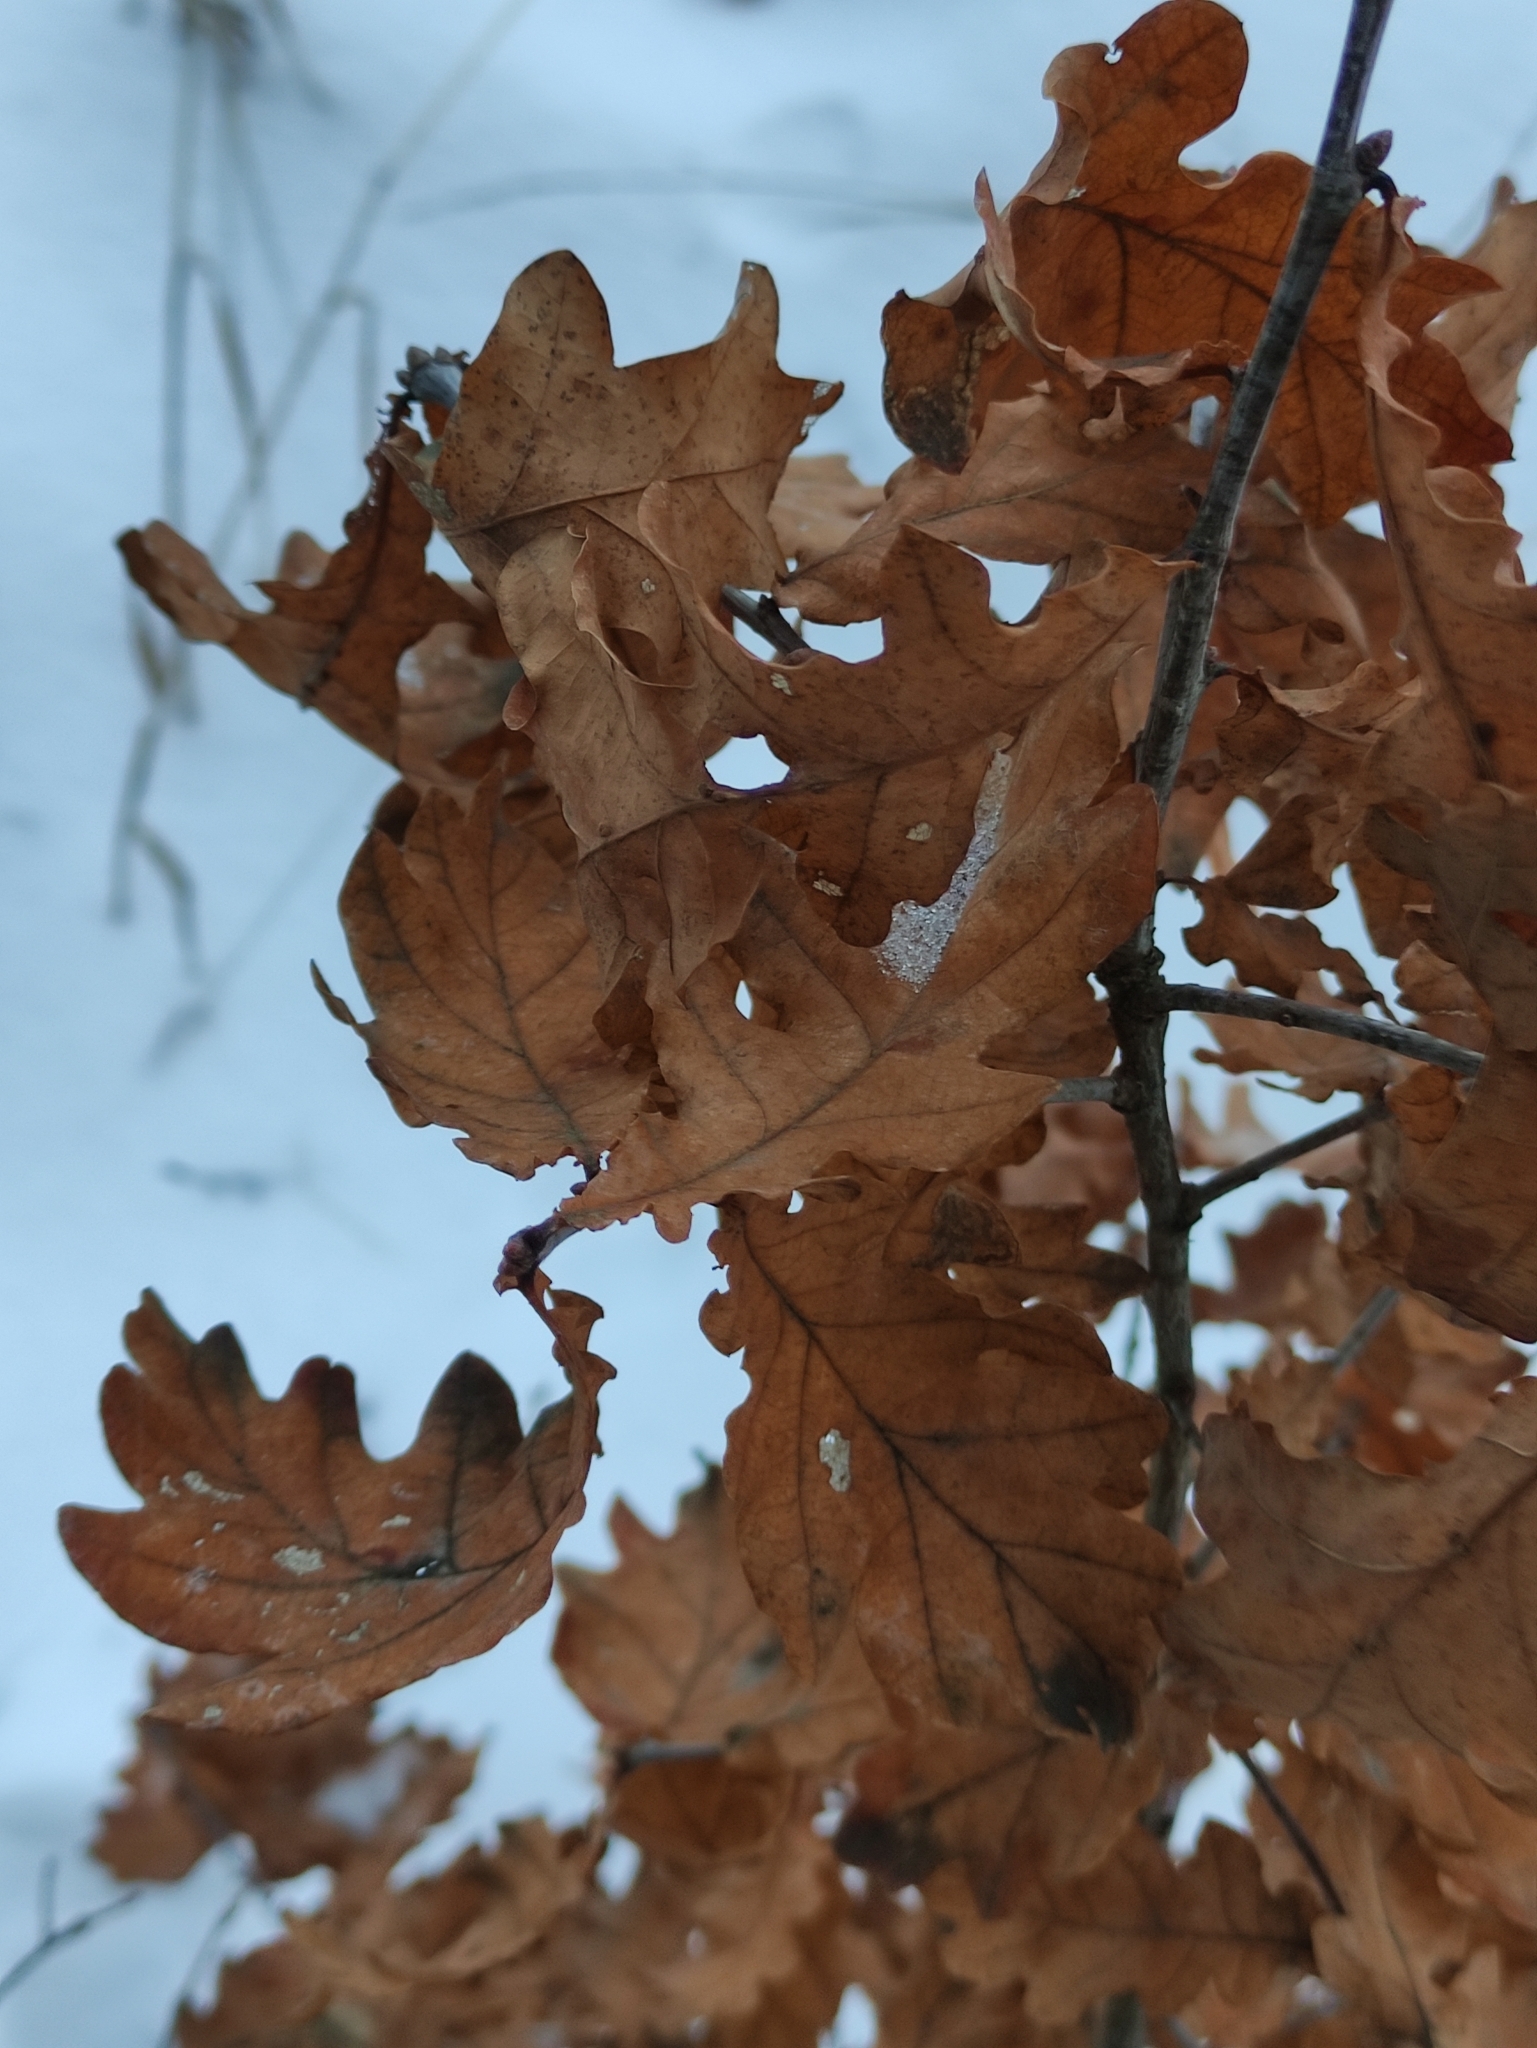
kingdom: Plantae
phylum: Tracheophyta
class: Magnoliopsida
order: Fagales
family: Fagaceae
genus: Quercus
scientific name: Quercus robur
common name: Pedunculate oak
